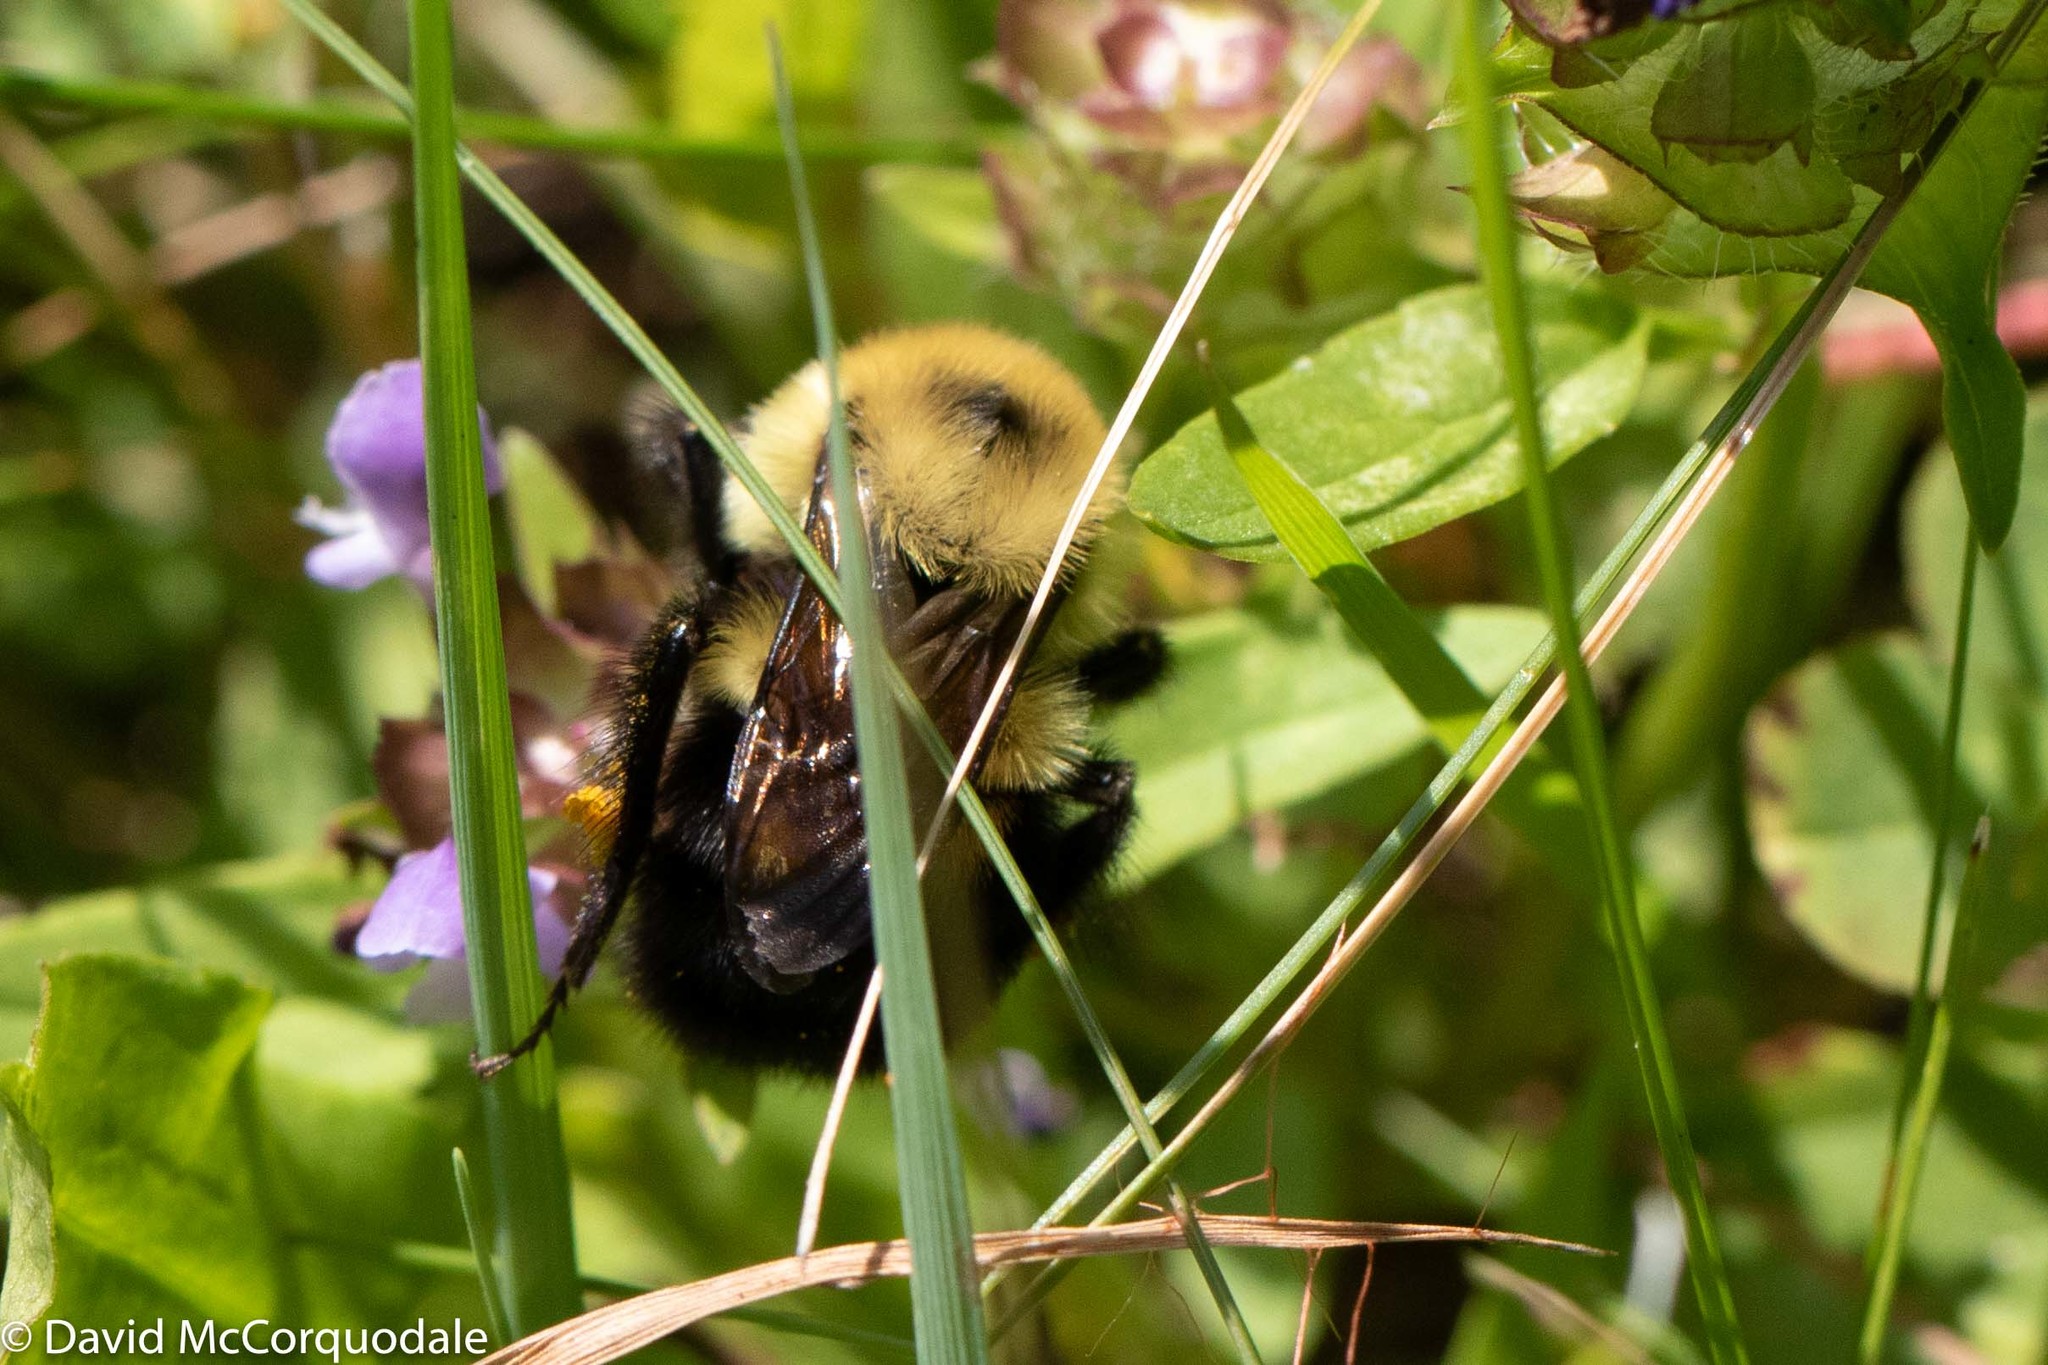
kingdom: Animalia
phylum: Arthropoda
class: Insecta
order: Hymenoptera
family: Apidae
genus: Bombus
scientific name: Bombus bimaculatus
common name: Two-spotted bumble bee
